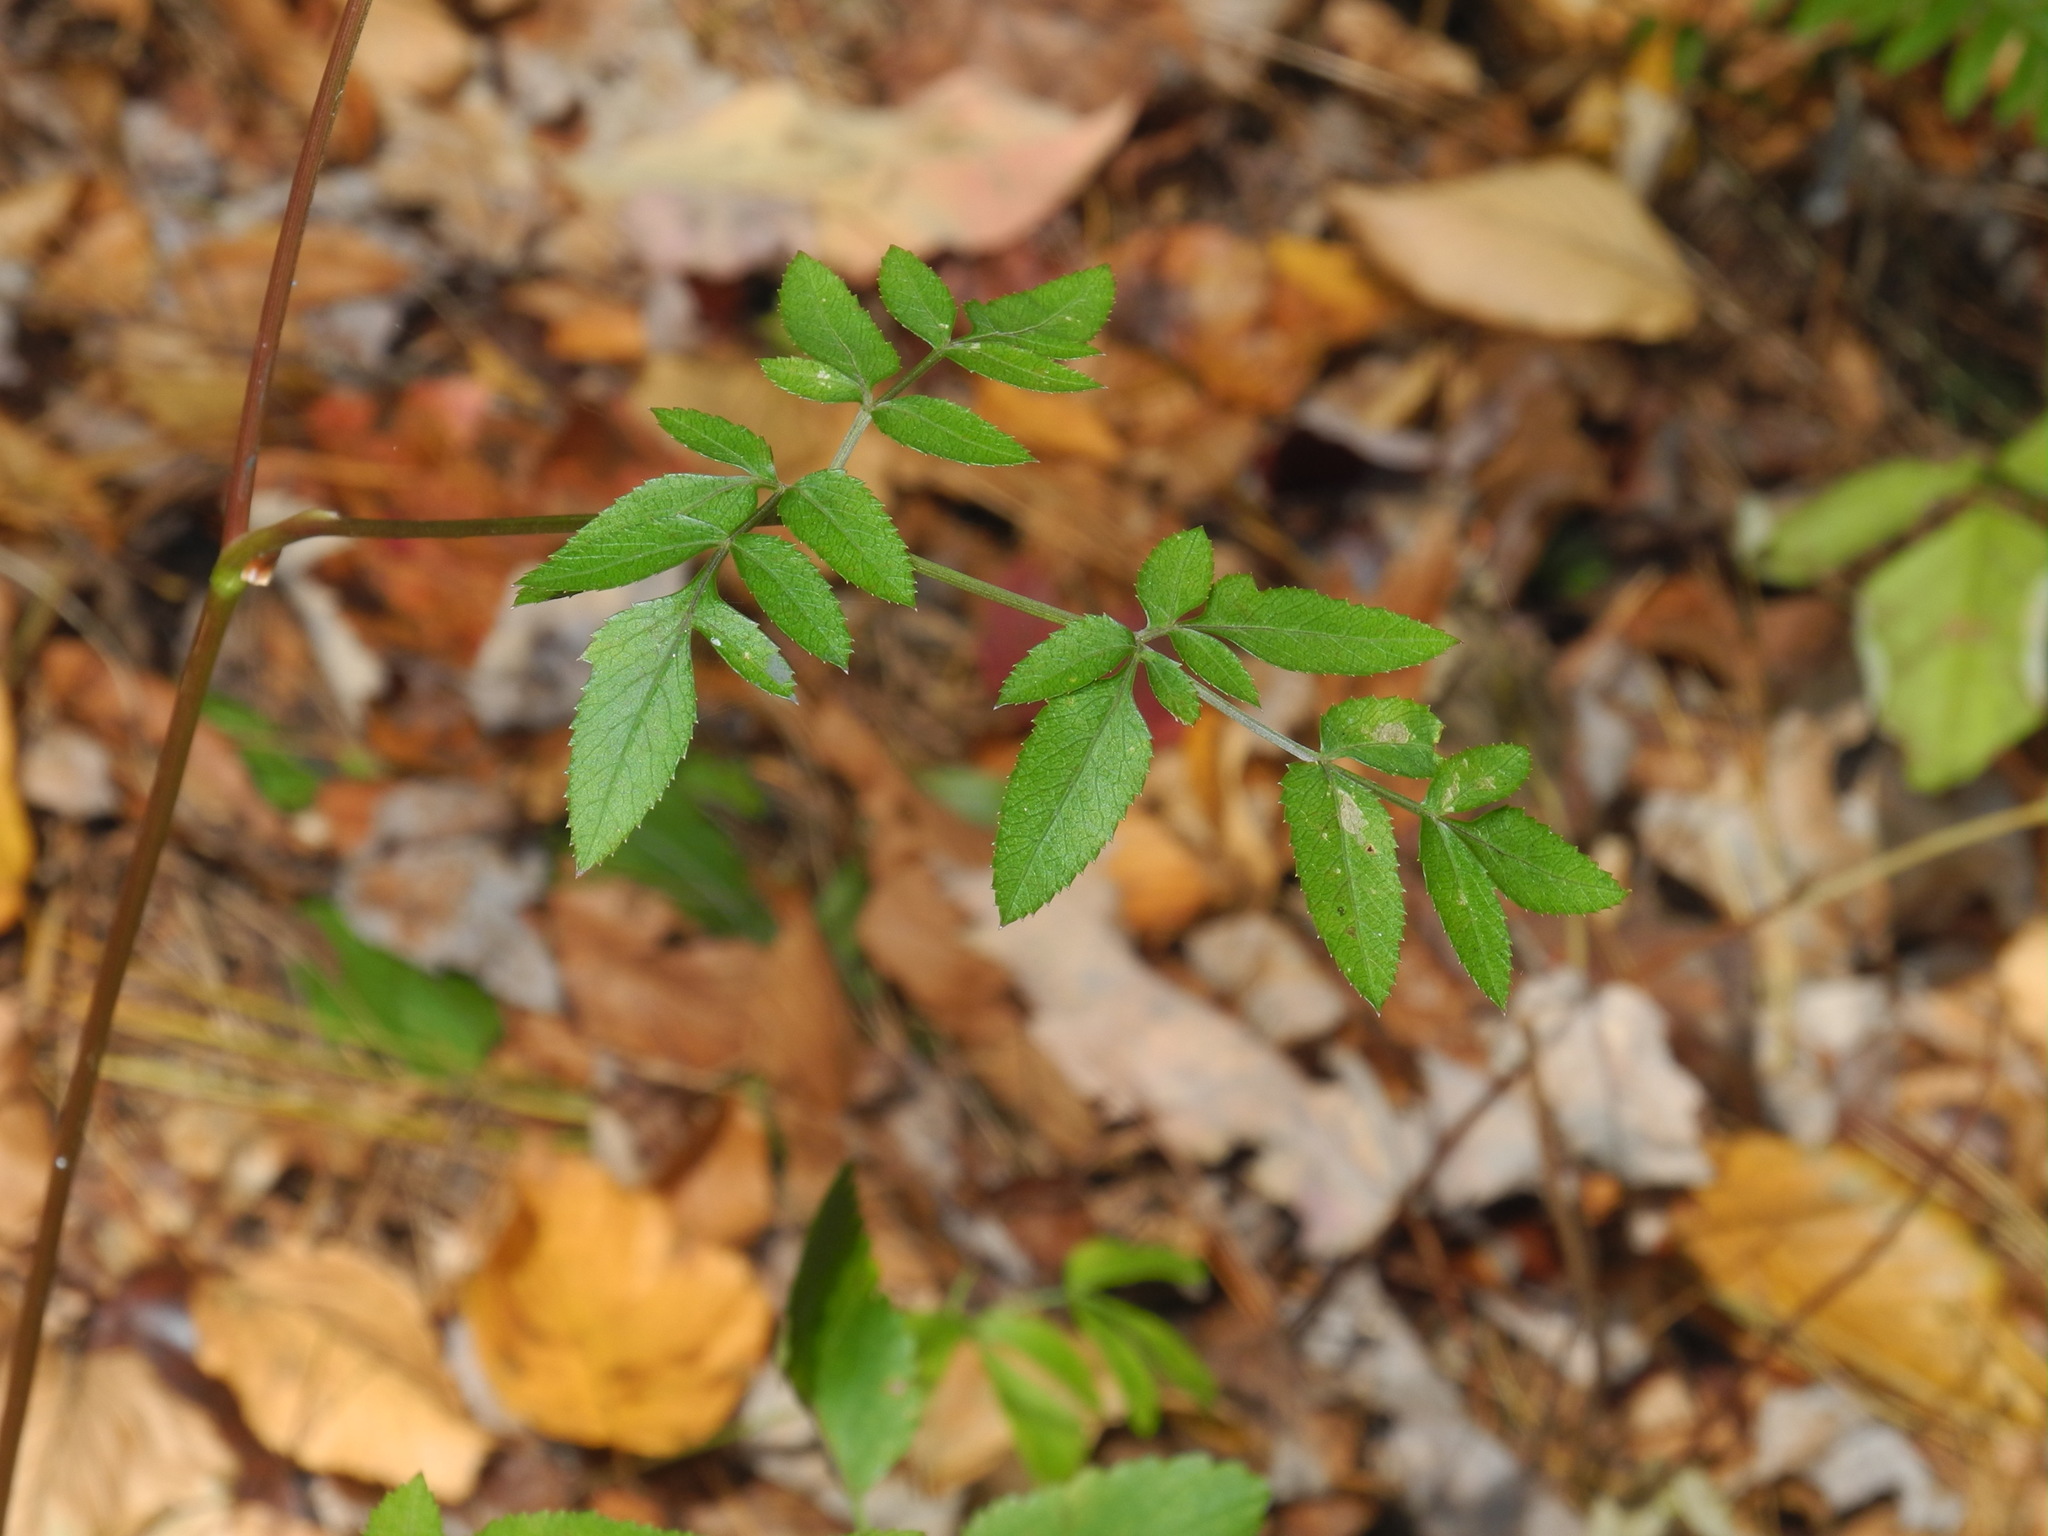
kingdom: Plantae
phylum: Tracheophyta
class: Magnoliopsida
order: Apiales
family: Apiaceae
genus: Angelica
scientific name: Angelica venenosa
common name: Hairy angelica
